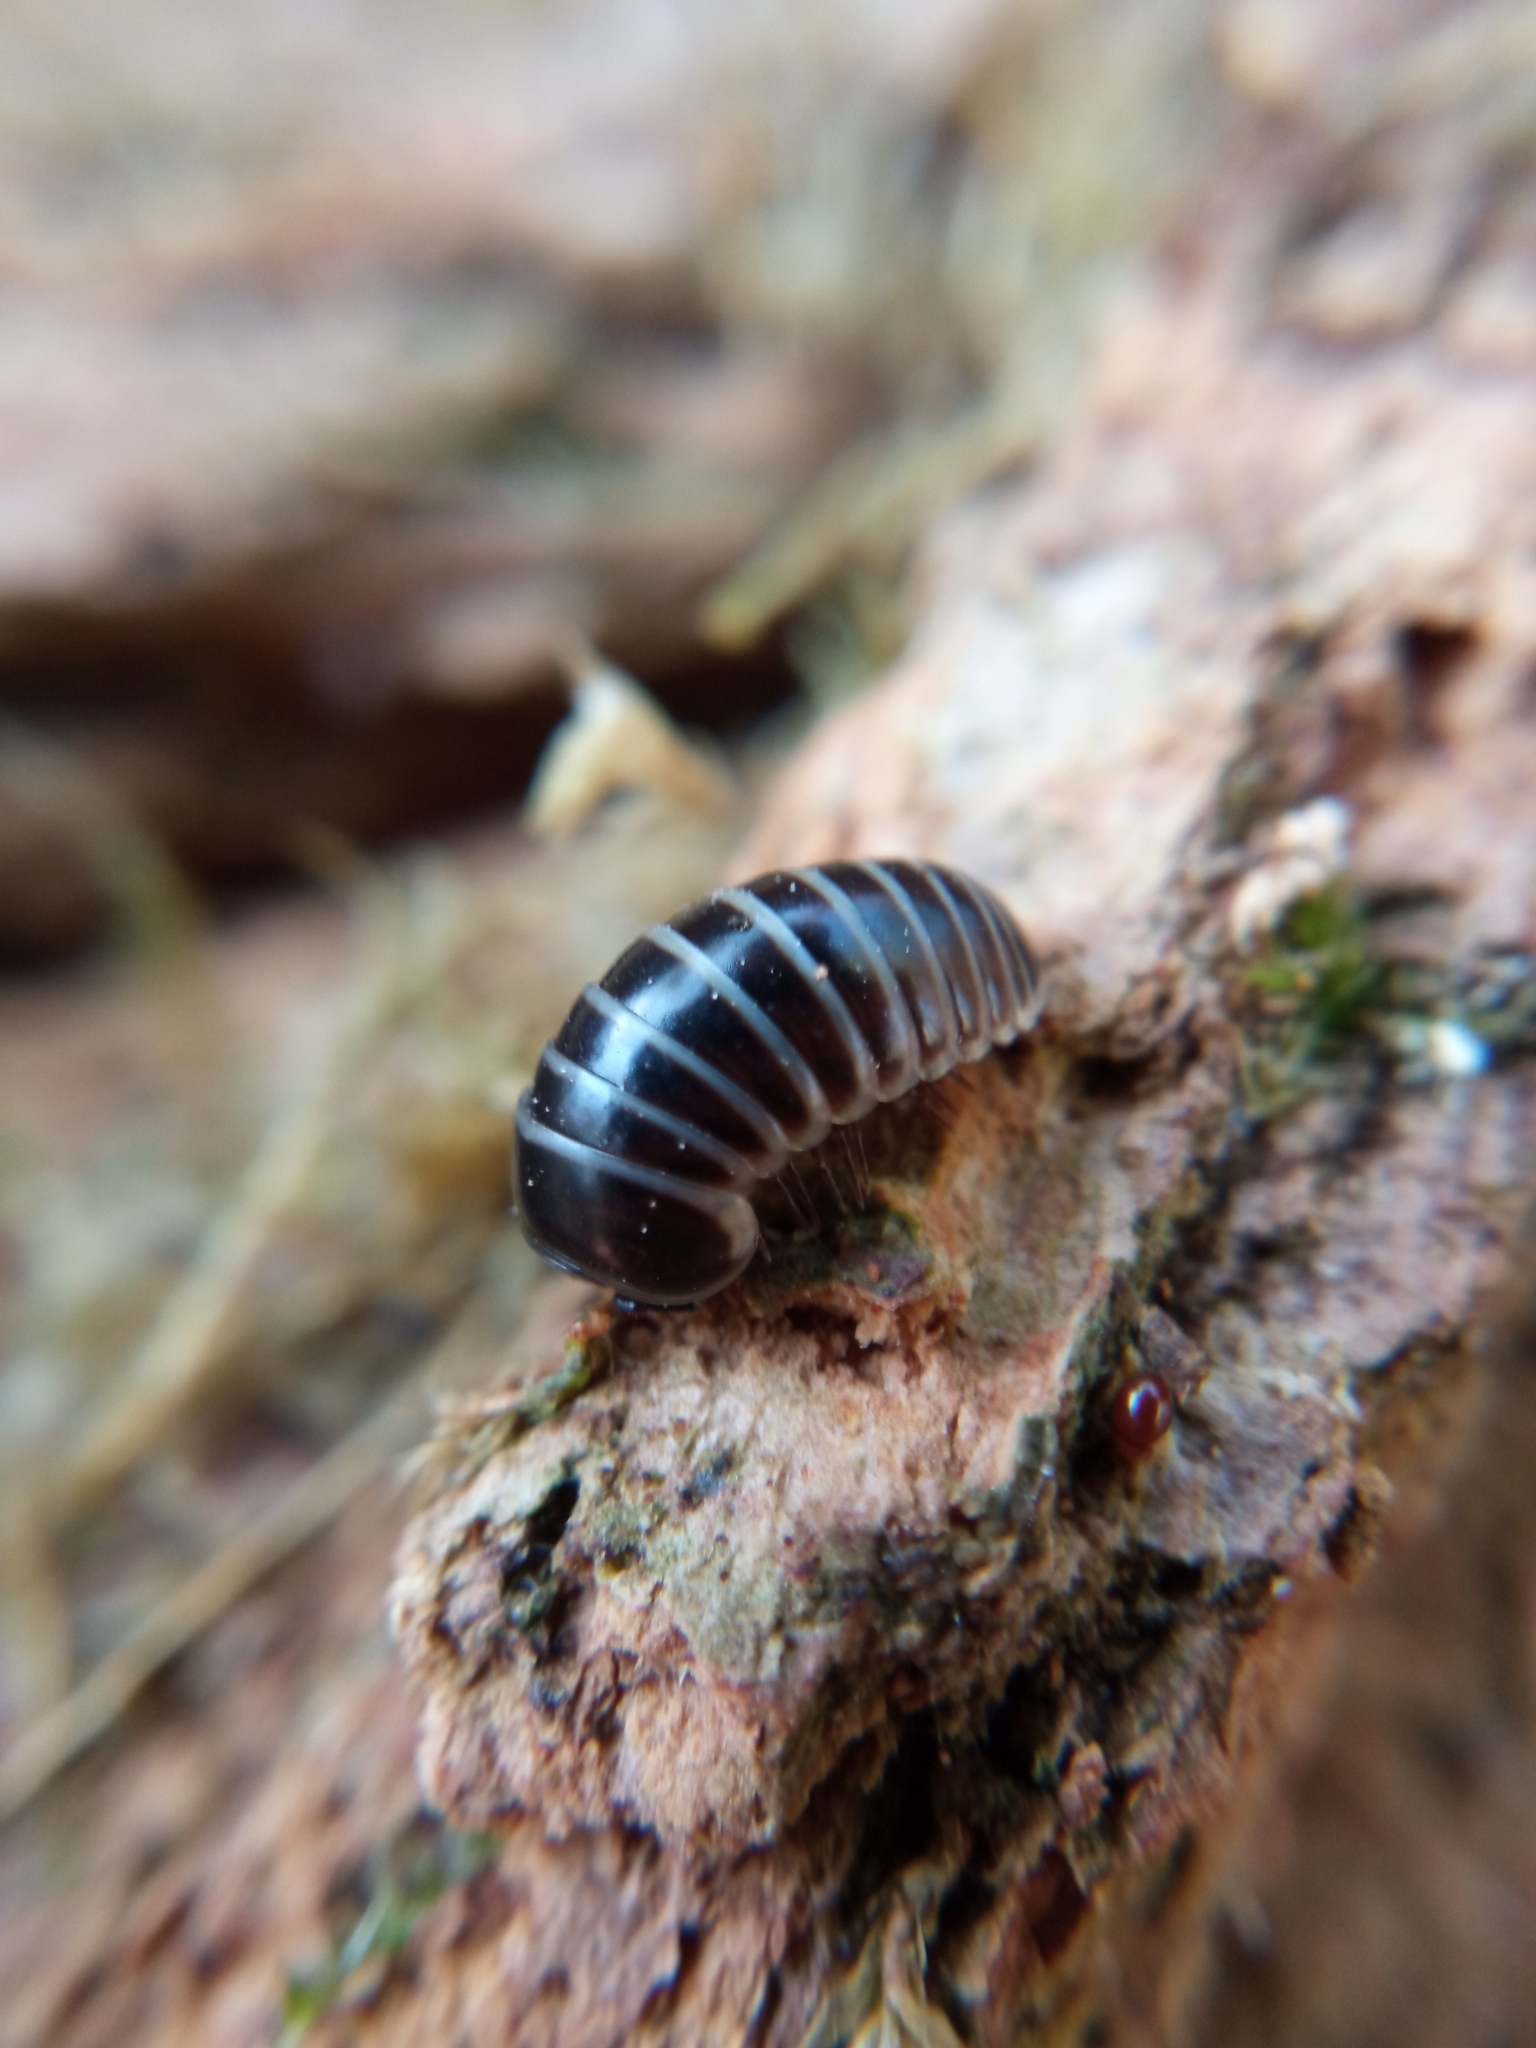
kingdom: Animalia
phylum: Arthropoda
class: Diplopoda
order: Glomerida
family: Glomeridae
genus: Glomeris
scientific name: Glomeris marginata
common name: Bordered pill millipede
